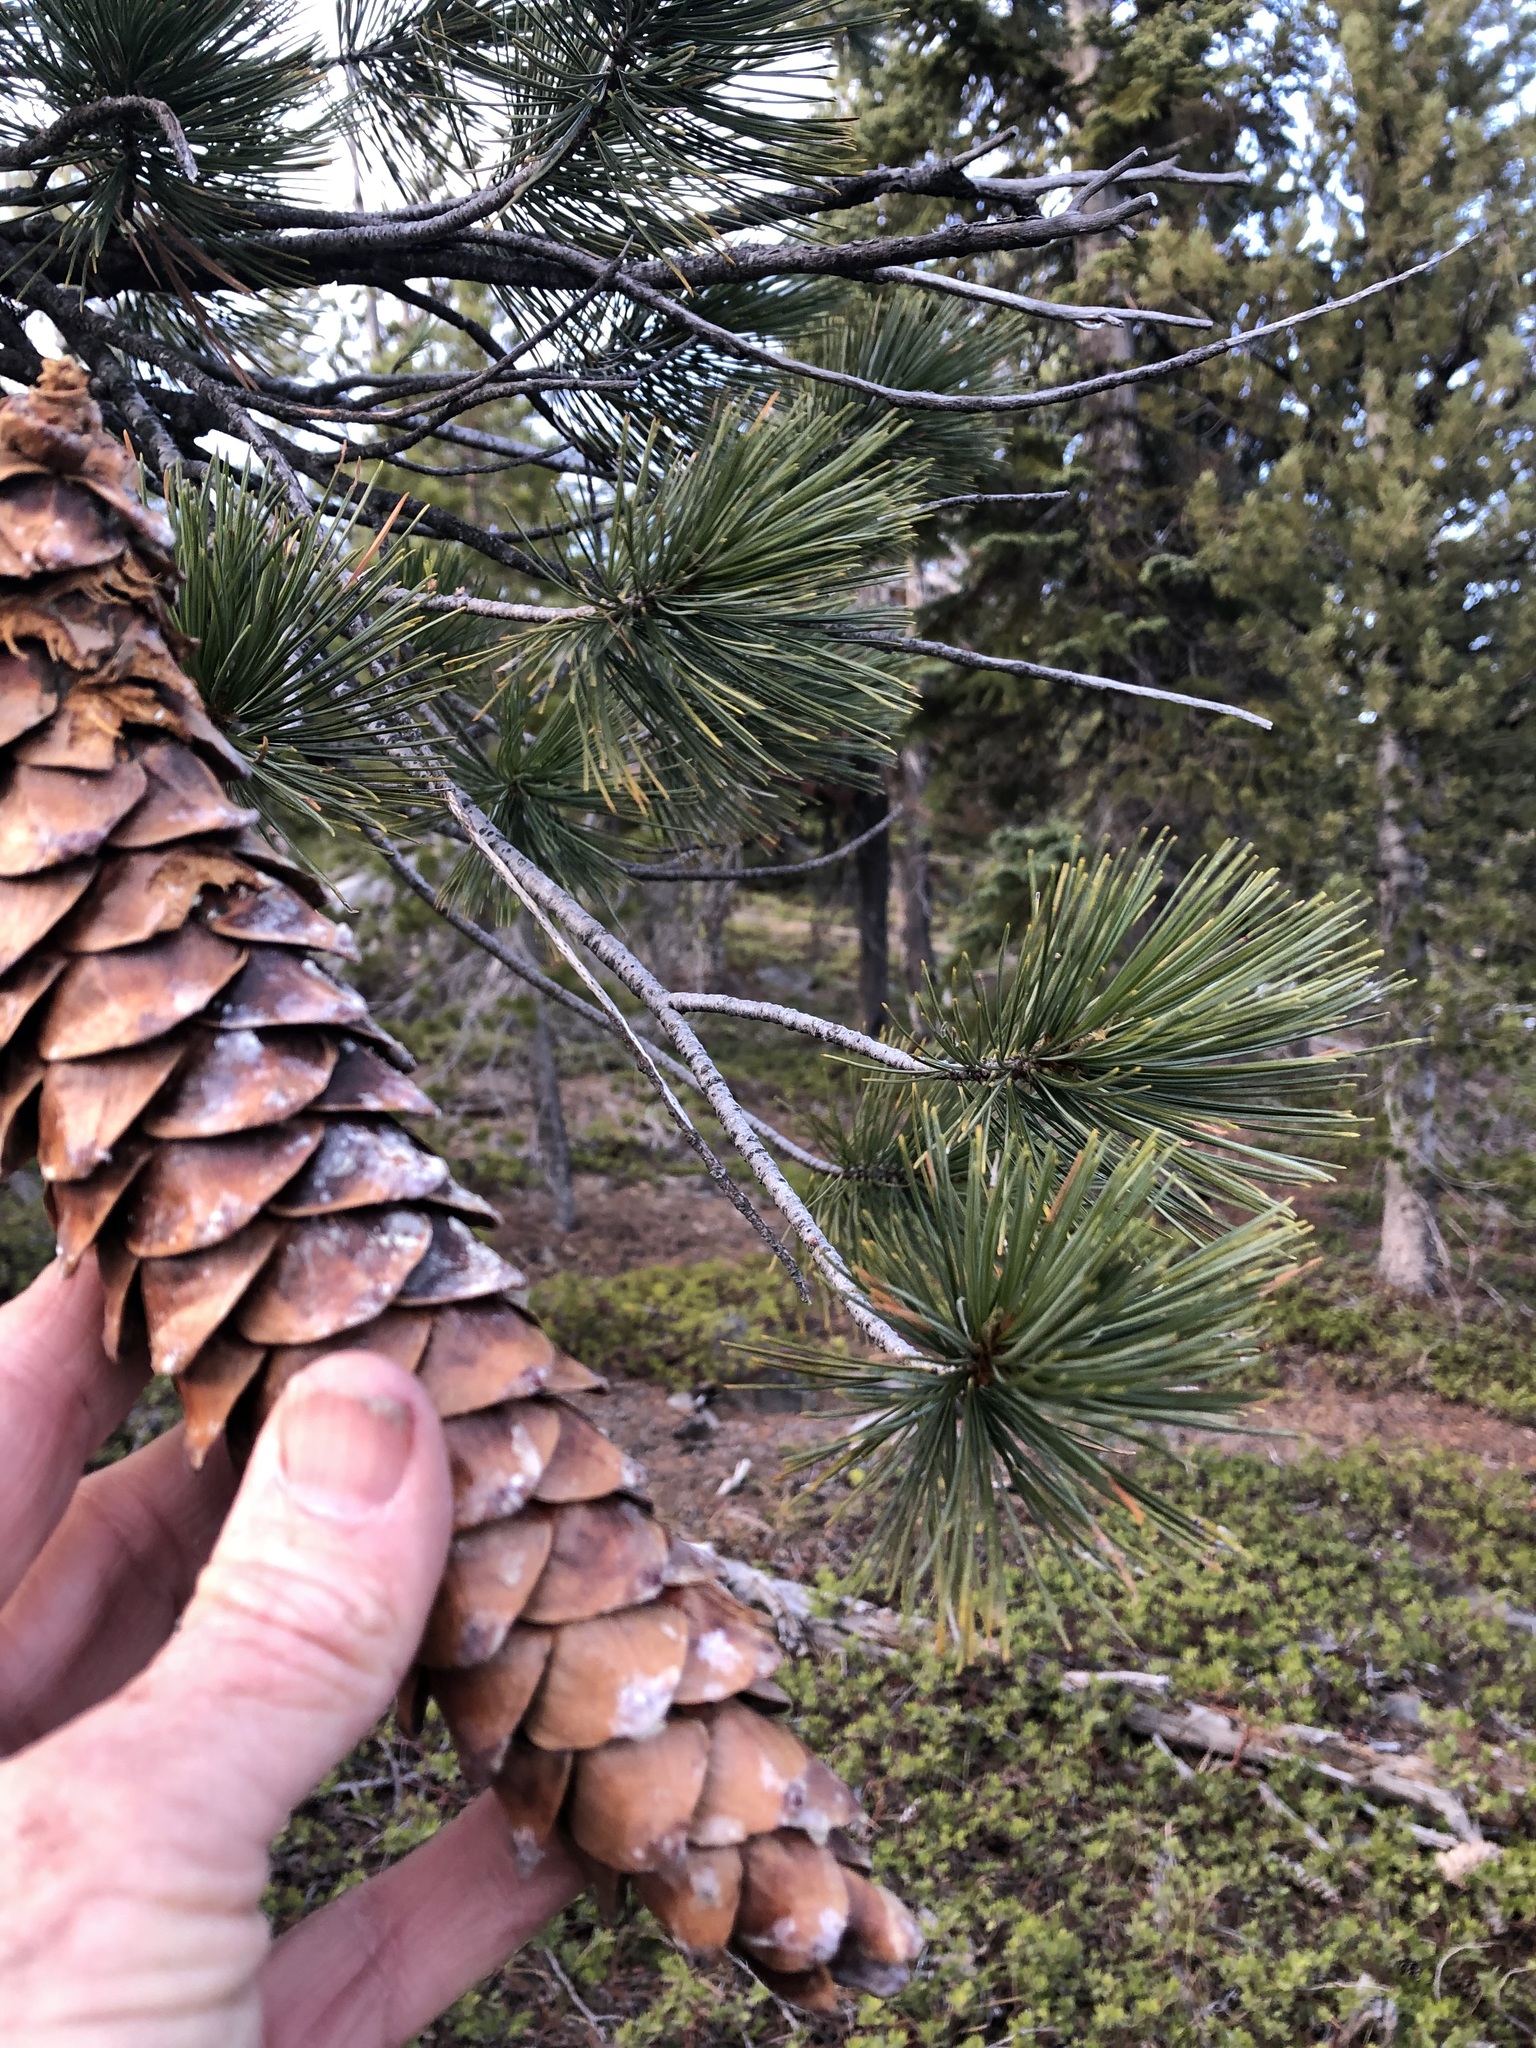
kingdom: Plantae
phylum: Tracheophyta
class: Pinopsida
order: Pinales
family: Pinaceae
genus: Pinus
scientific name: Pinus monticola
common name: Western white pine
